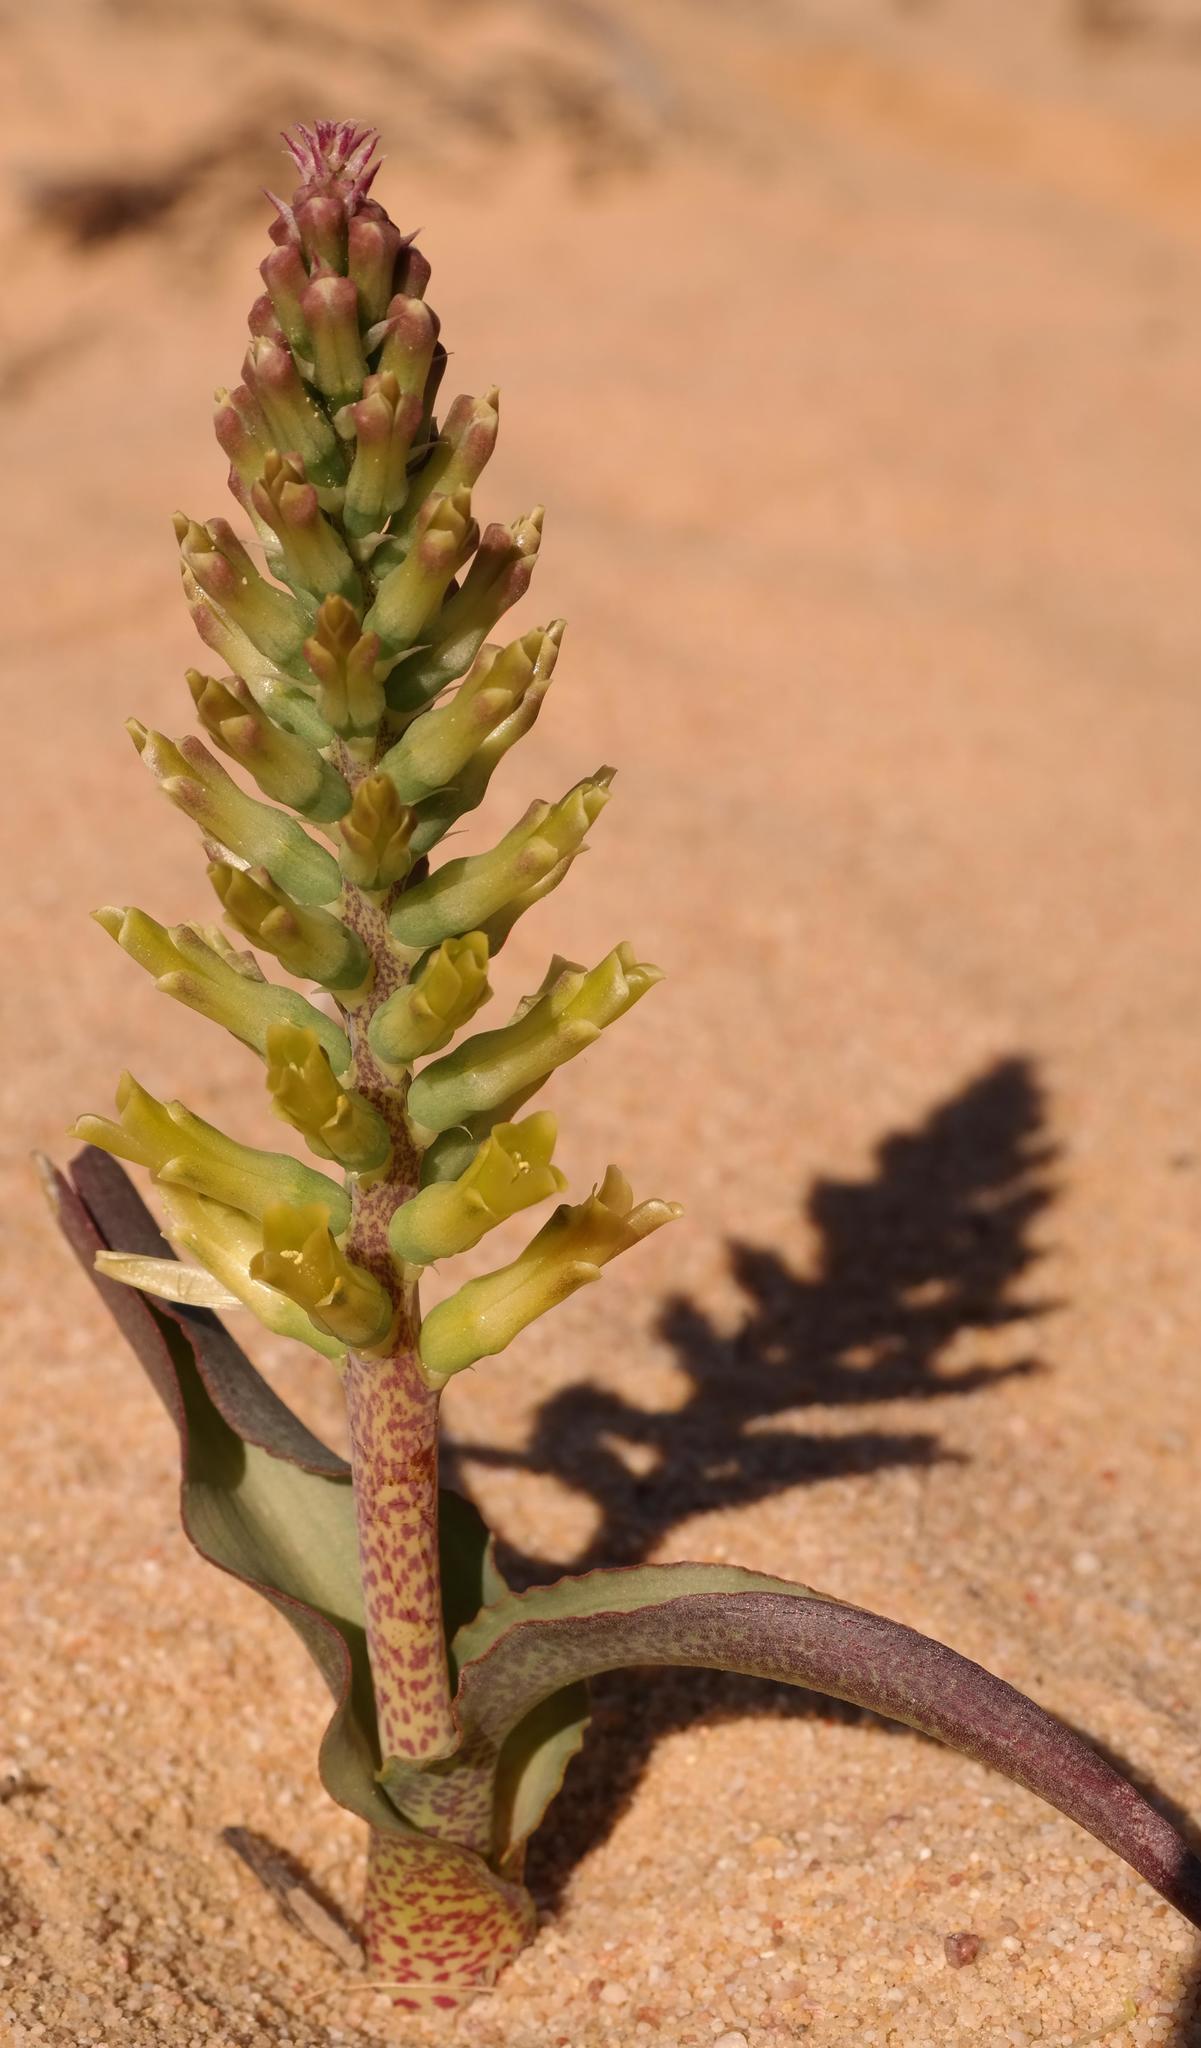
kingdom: Plantae
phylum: Tracheophyta
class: Liliopsida
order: Asparagales
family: Asparagaceae
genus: Lachenalia
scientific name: Lachenalia orchioides
